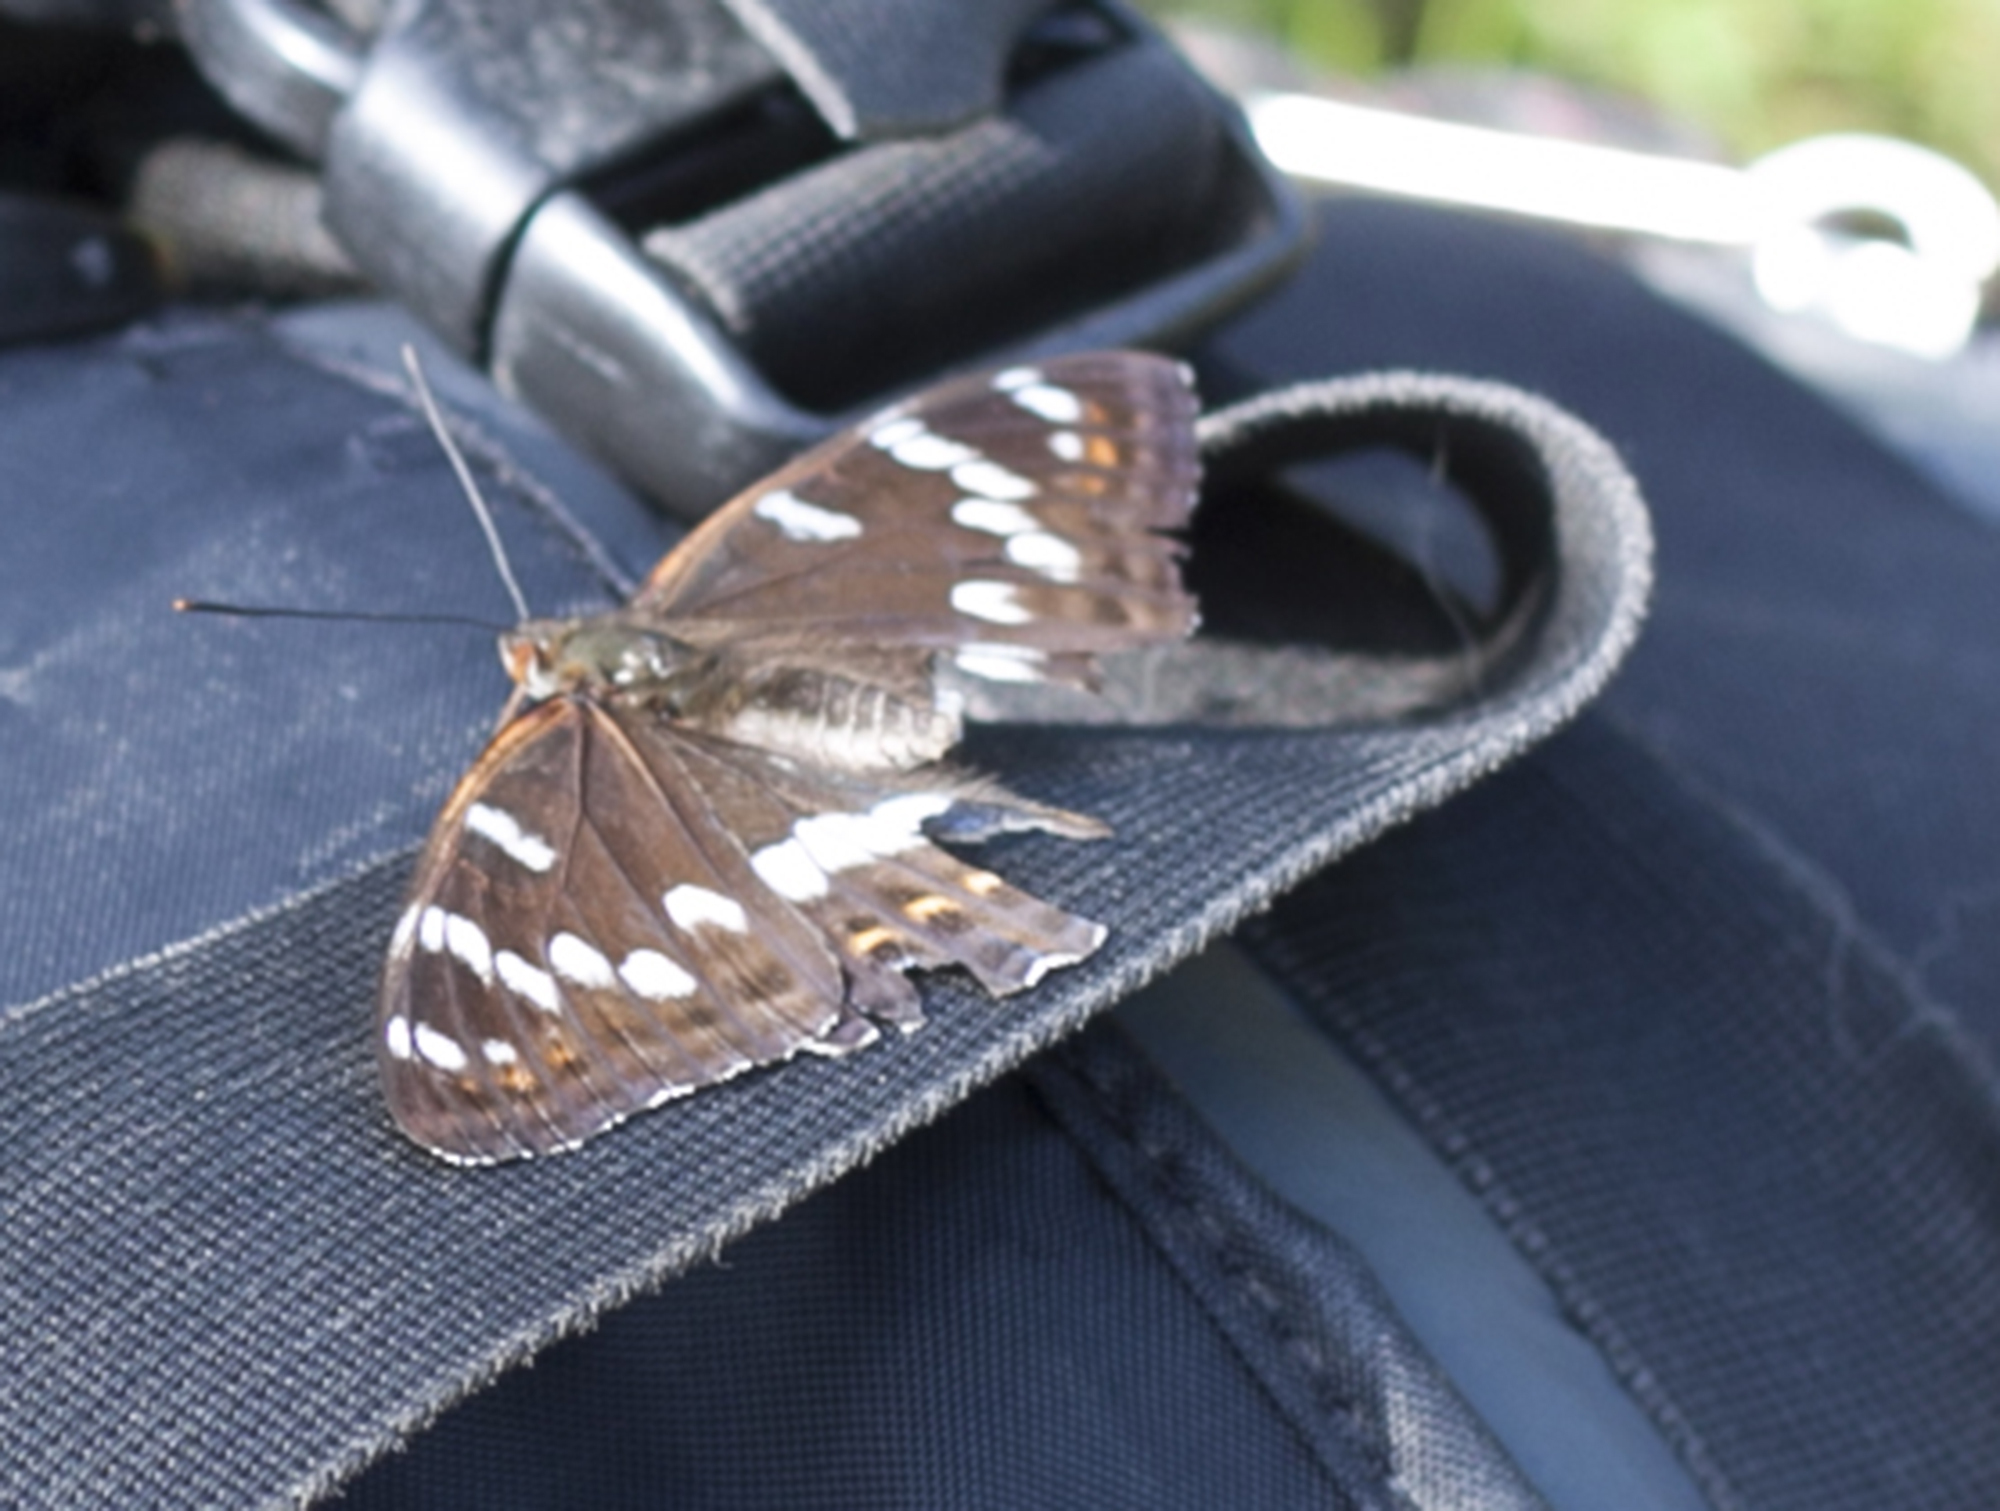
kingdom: Animalia
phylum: Arthropoda
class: Insecta
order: Lepidoptera
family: Nymphalidae
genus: Limenitis
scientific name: Limenitis populi
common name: Poplar admiral
